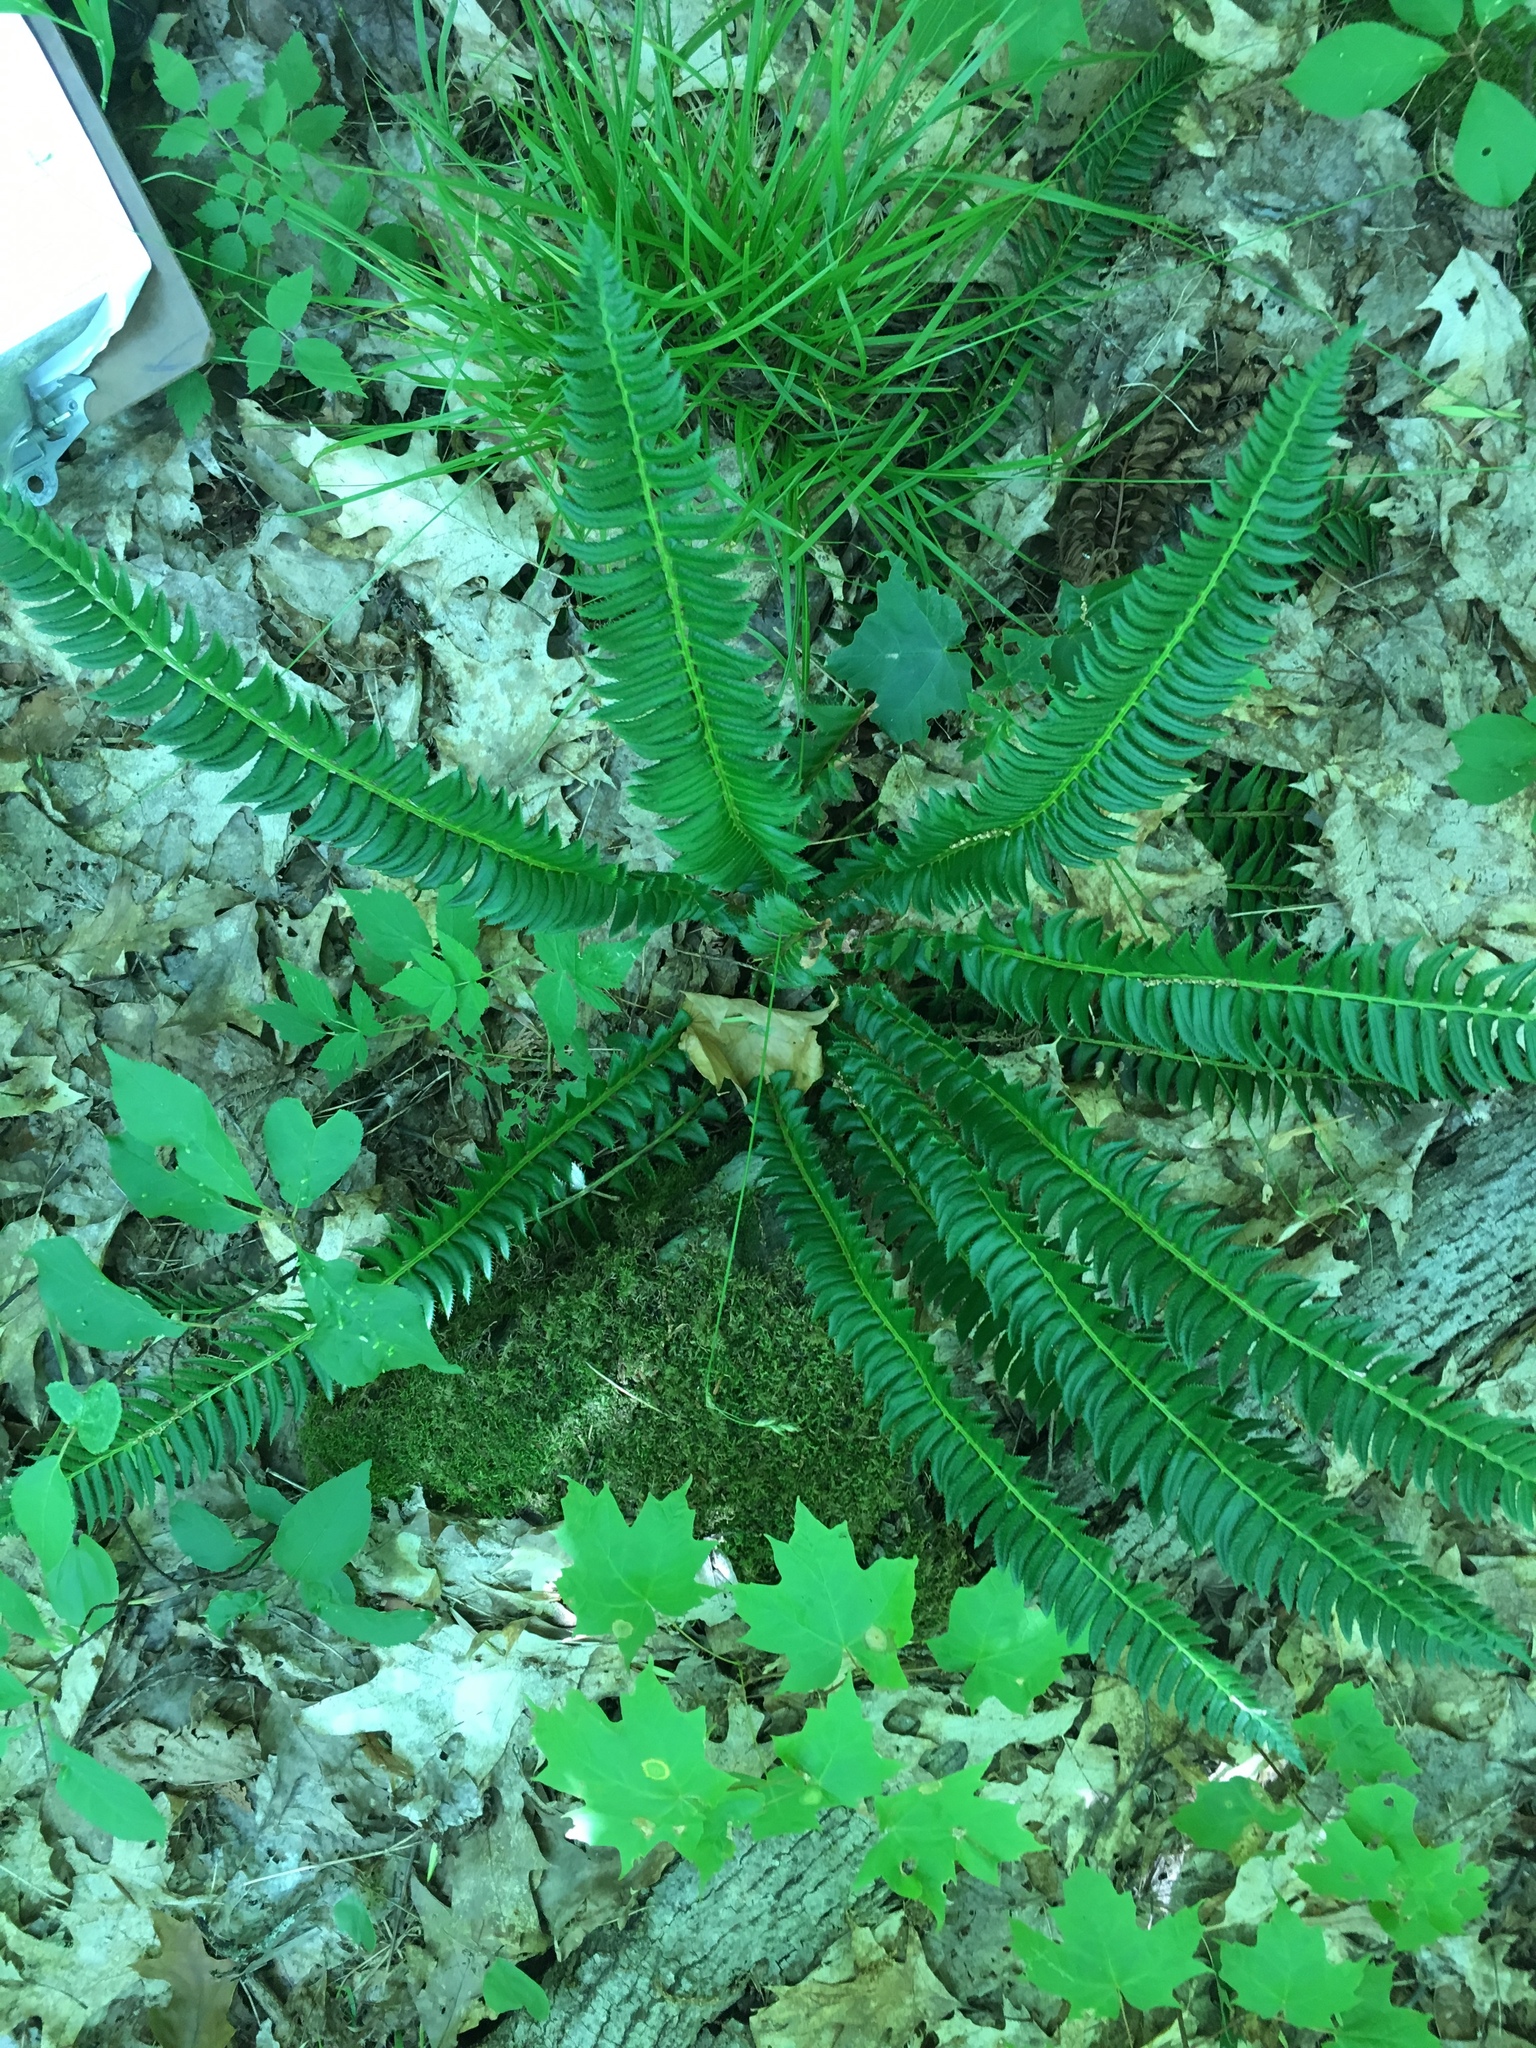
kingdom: Plantae
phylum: Tracheophyta
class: Polypodiopsida
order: Polypodiales
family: Dryopteridaceae
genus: Polystichum
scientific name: Polystichum lonchitis
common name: Holly fern
